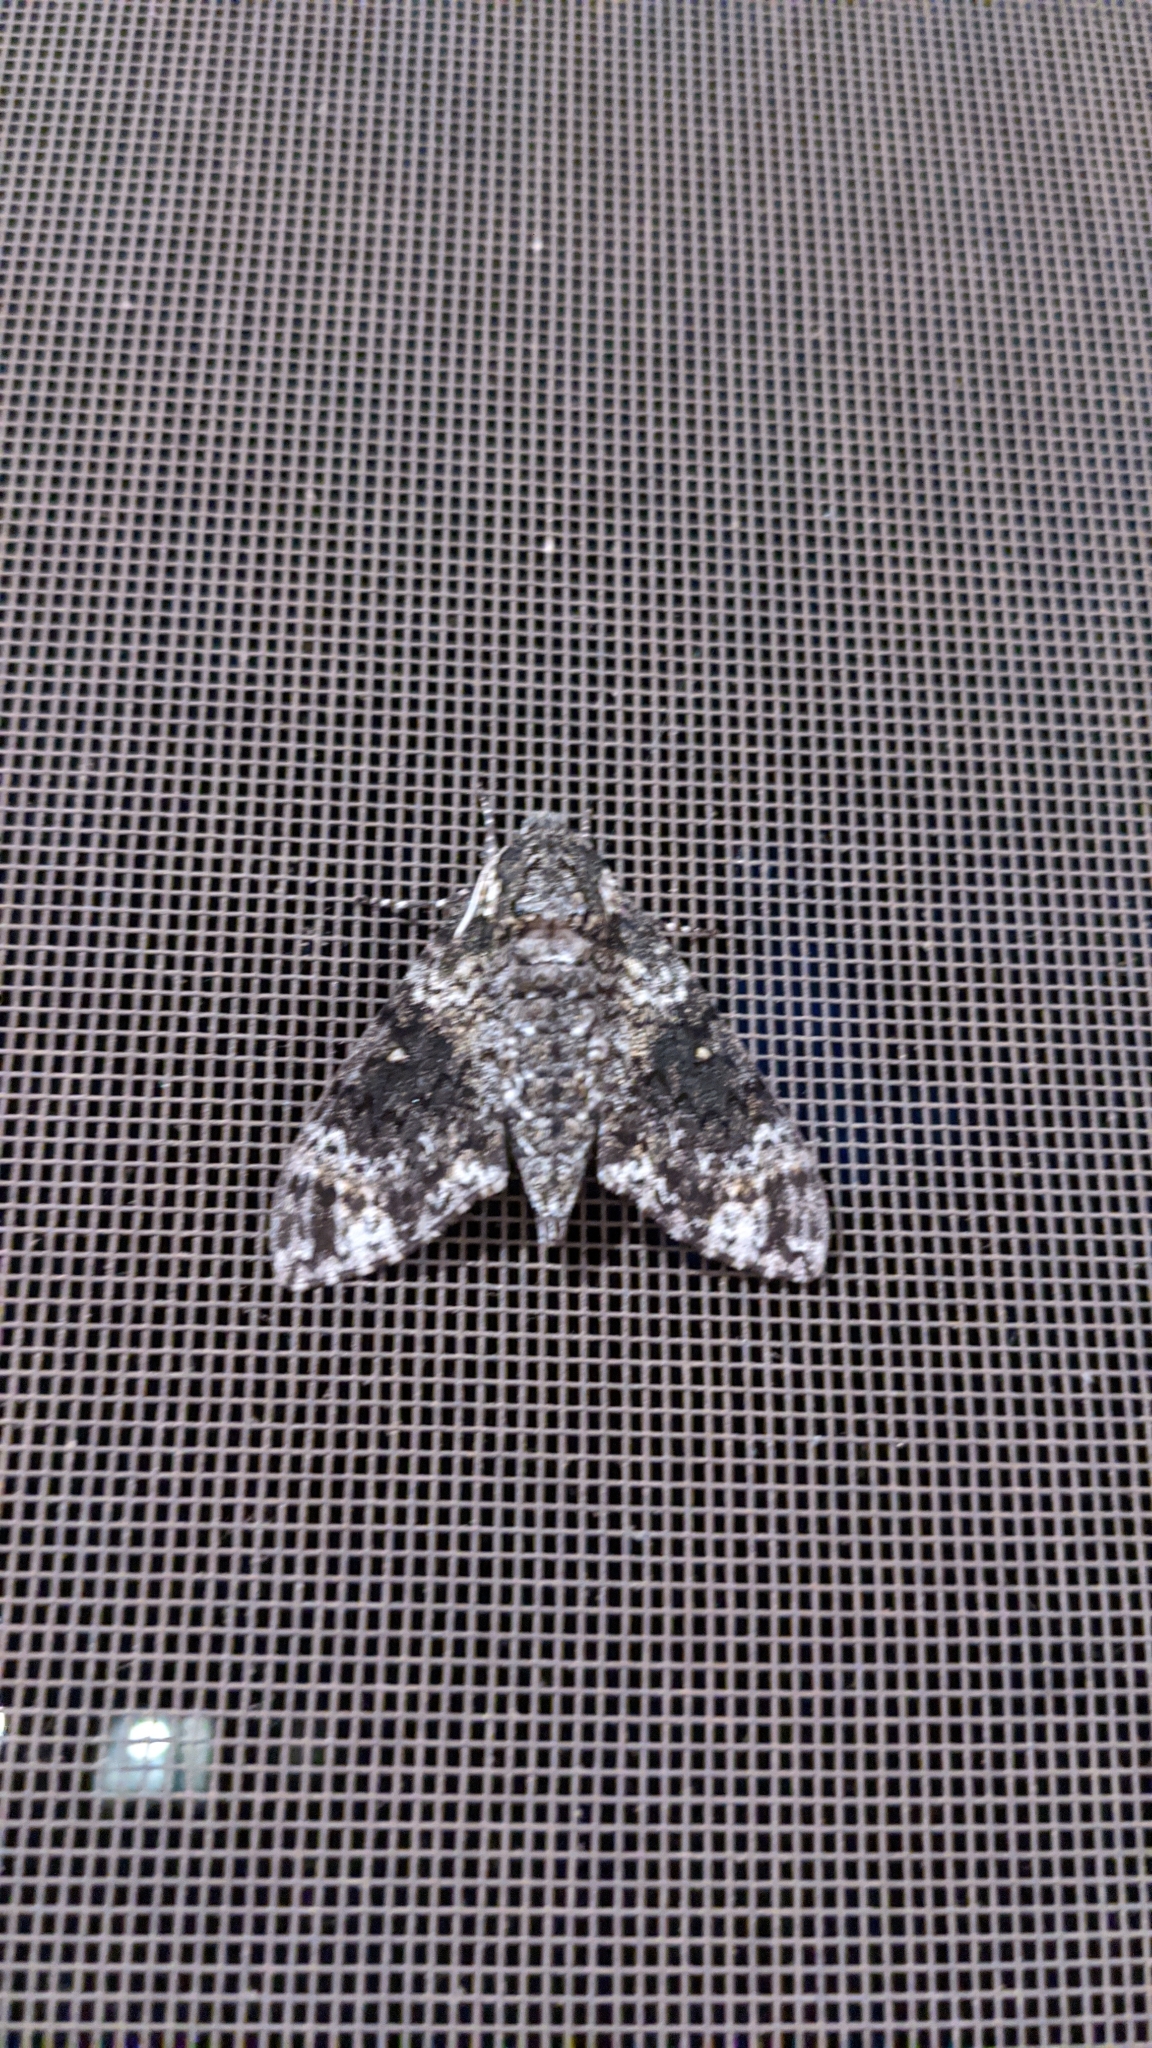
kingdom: Animalia
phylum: Arthropoda
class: Insecta
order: Lepidoptera
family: Sphingidae
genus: Dolba
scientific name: Dolba hyloeus
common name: Pawpaw sphinx
